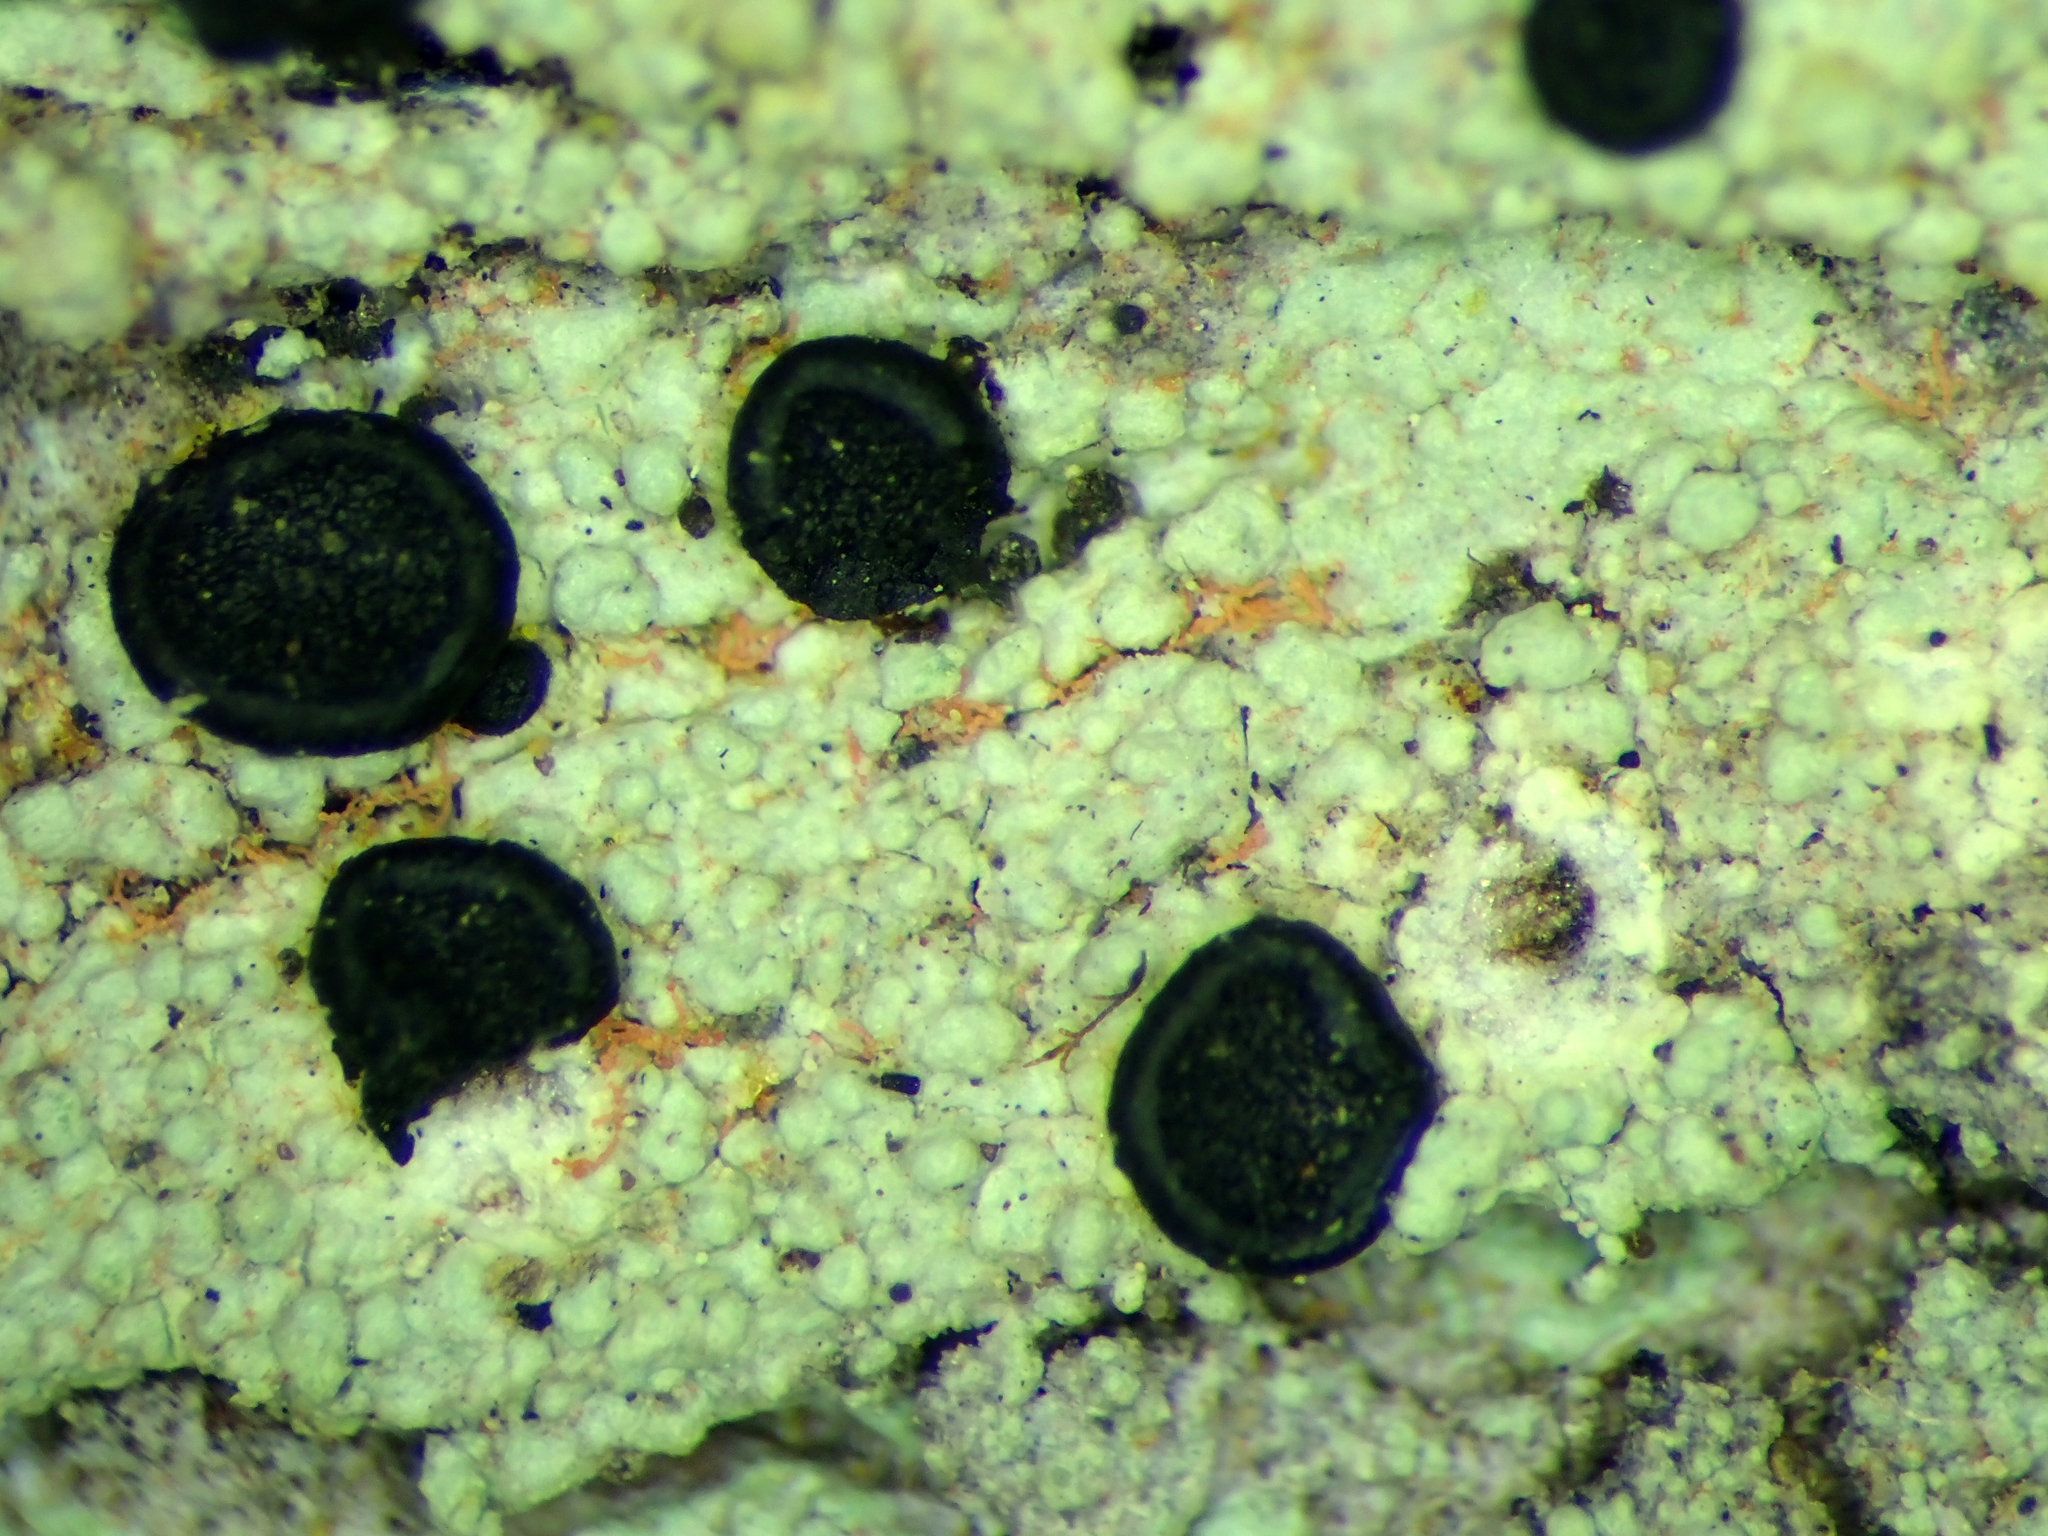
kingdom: Fungi
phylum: Ascomycota
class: Lecanoromycetes
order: Lecanorales
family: Ramalinaceae
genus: Megalaria
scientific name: Megalaria grossa
